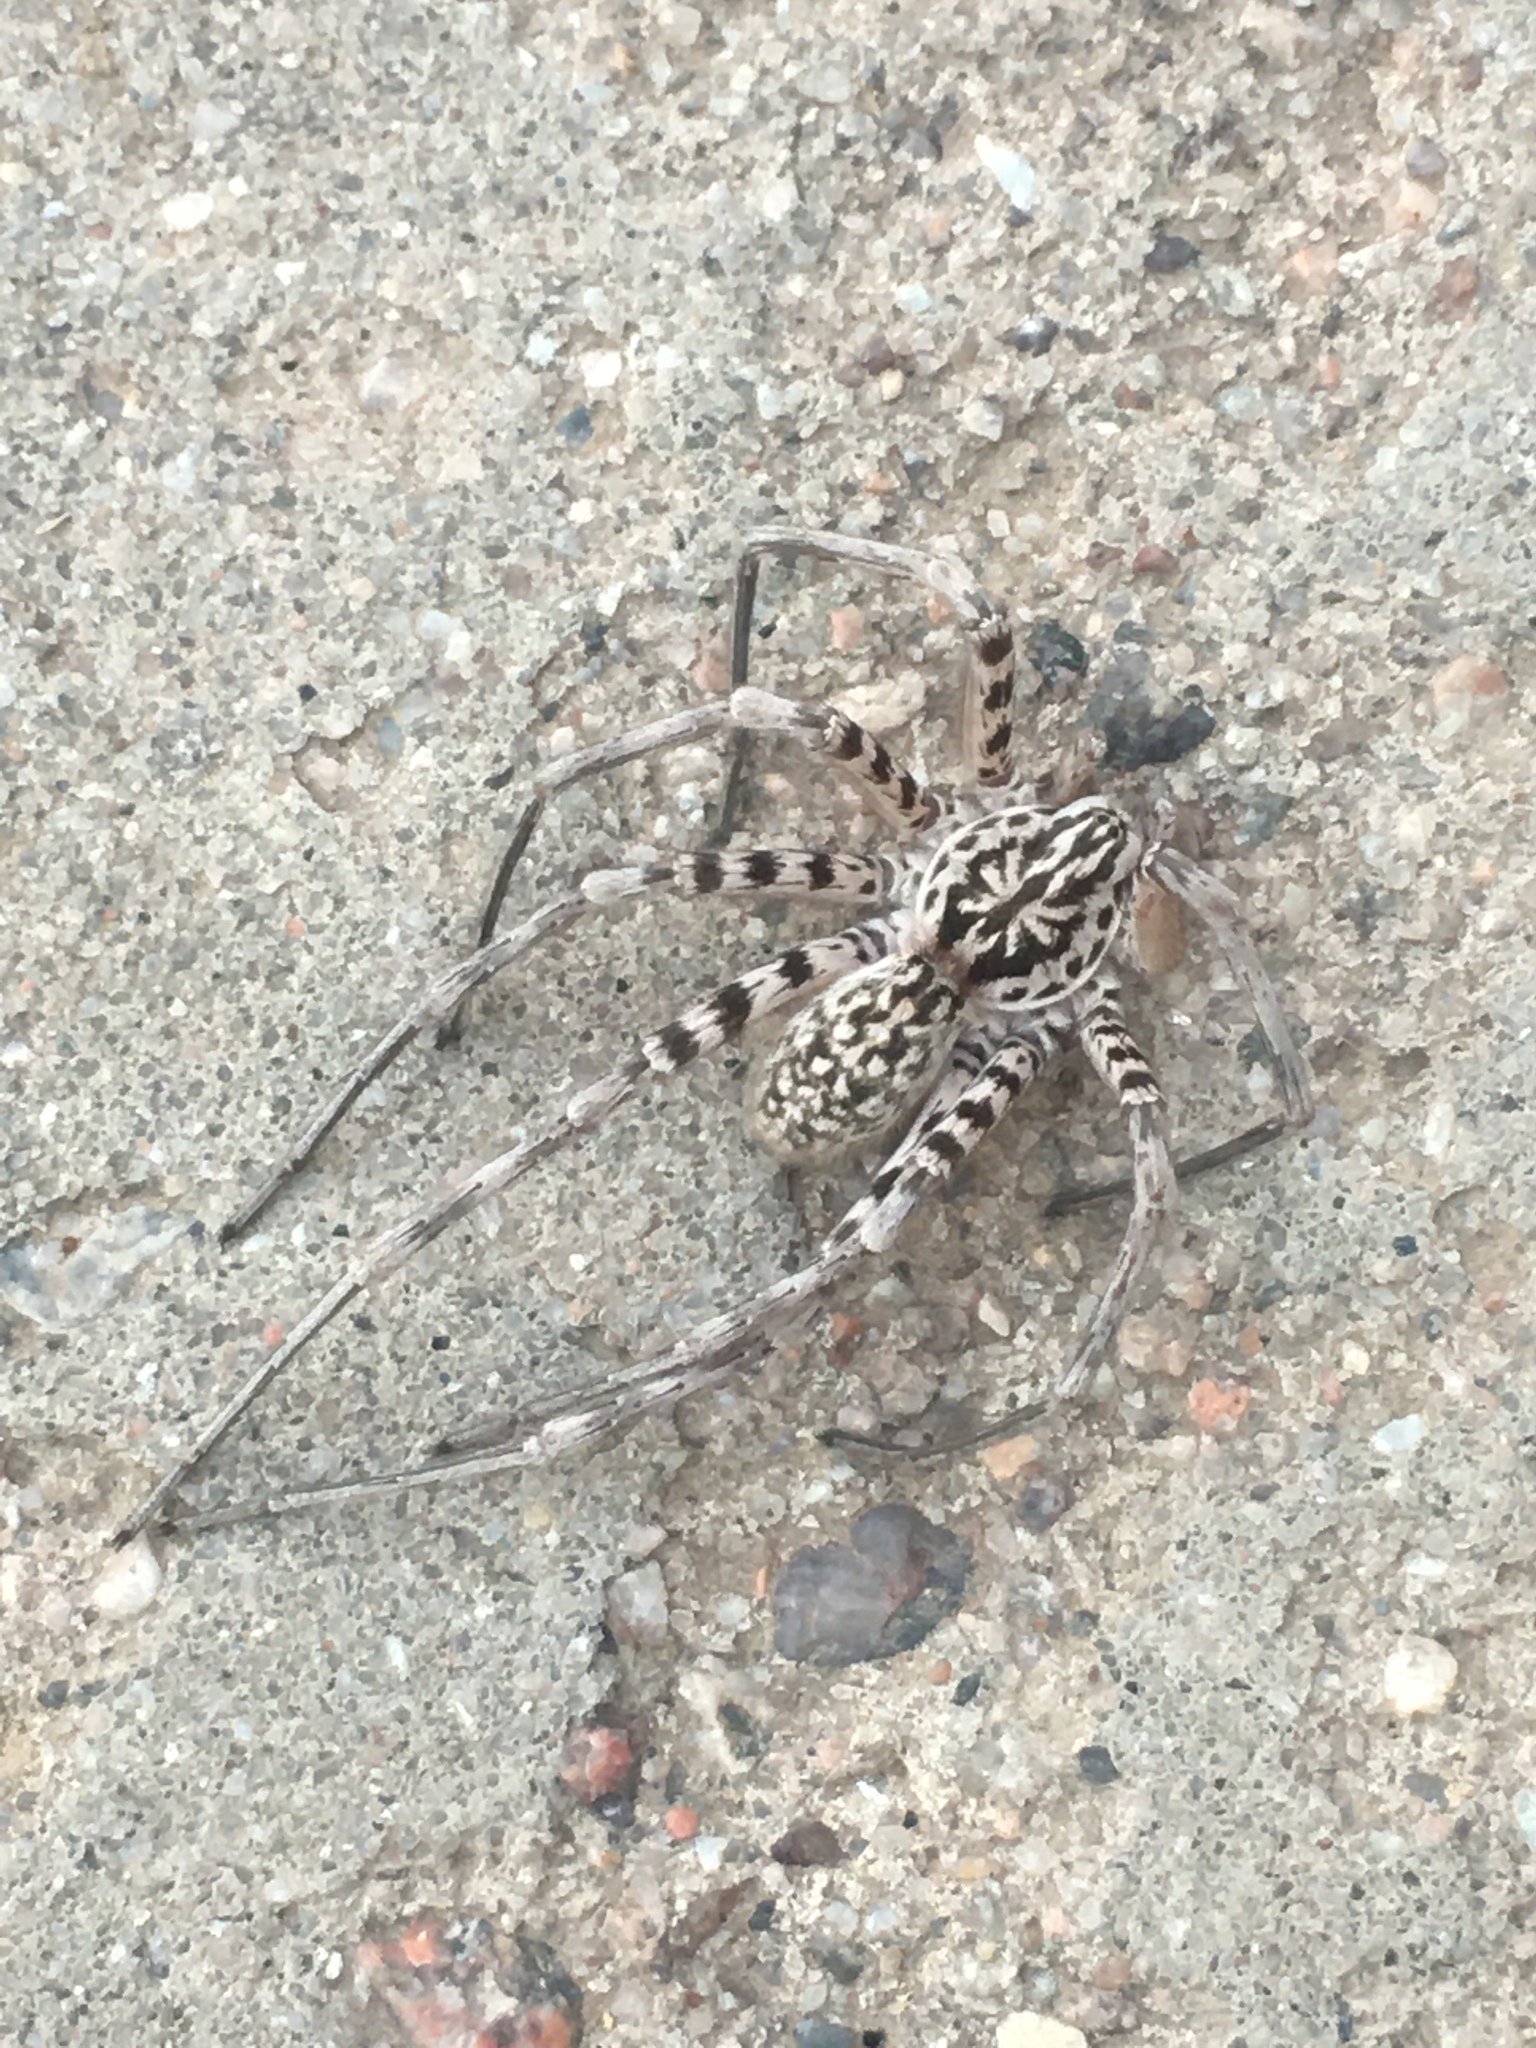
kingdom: Animalia
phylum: Arthropoda
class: Arachnida
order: Araneae
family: Xenoctenidae
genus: Xenoctenus
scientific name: Xenoctenus unguiculatus
